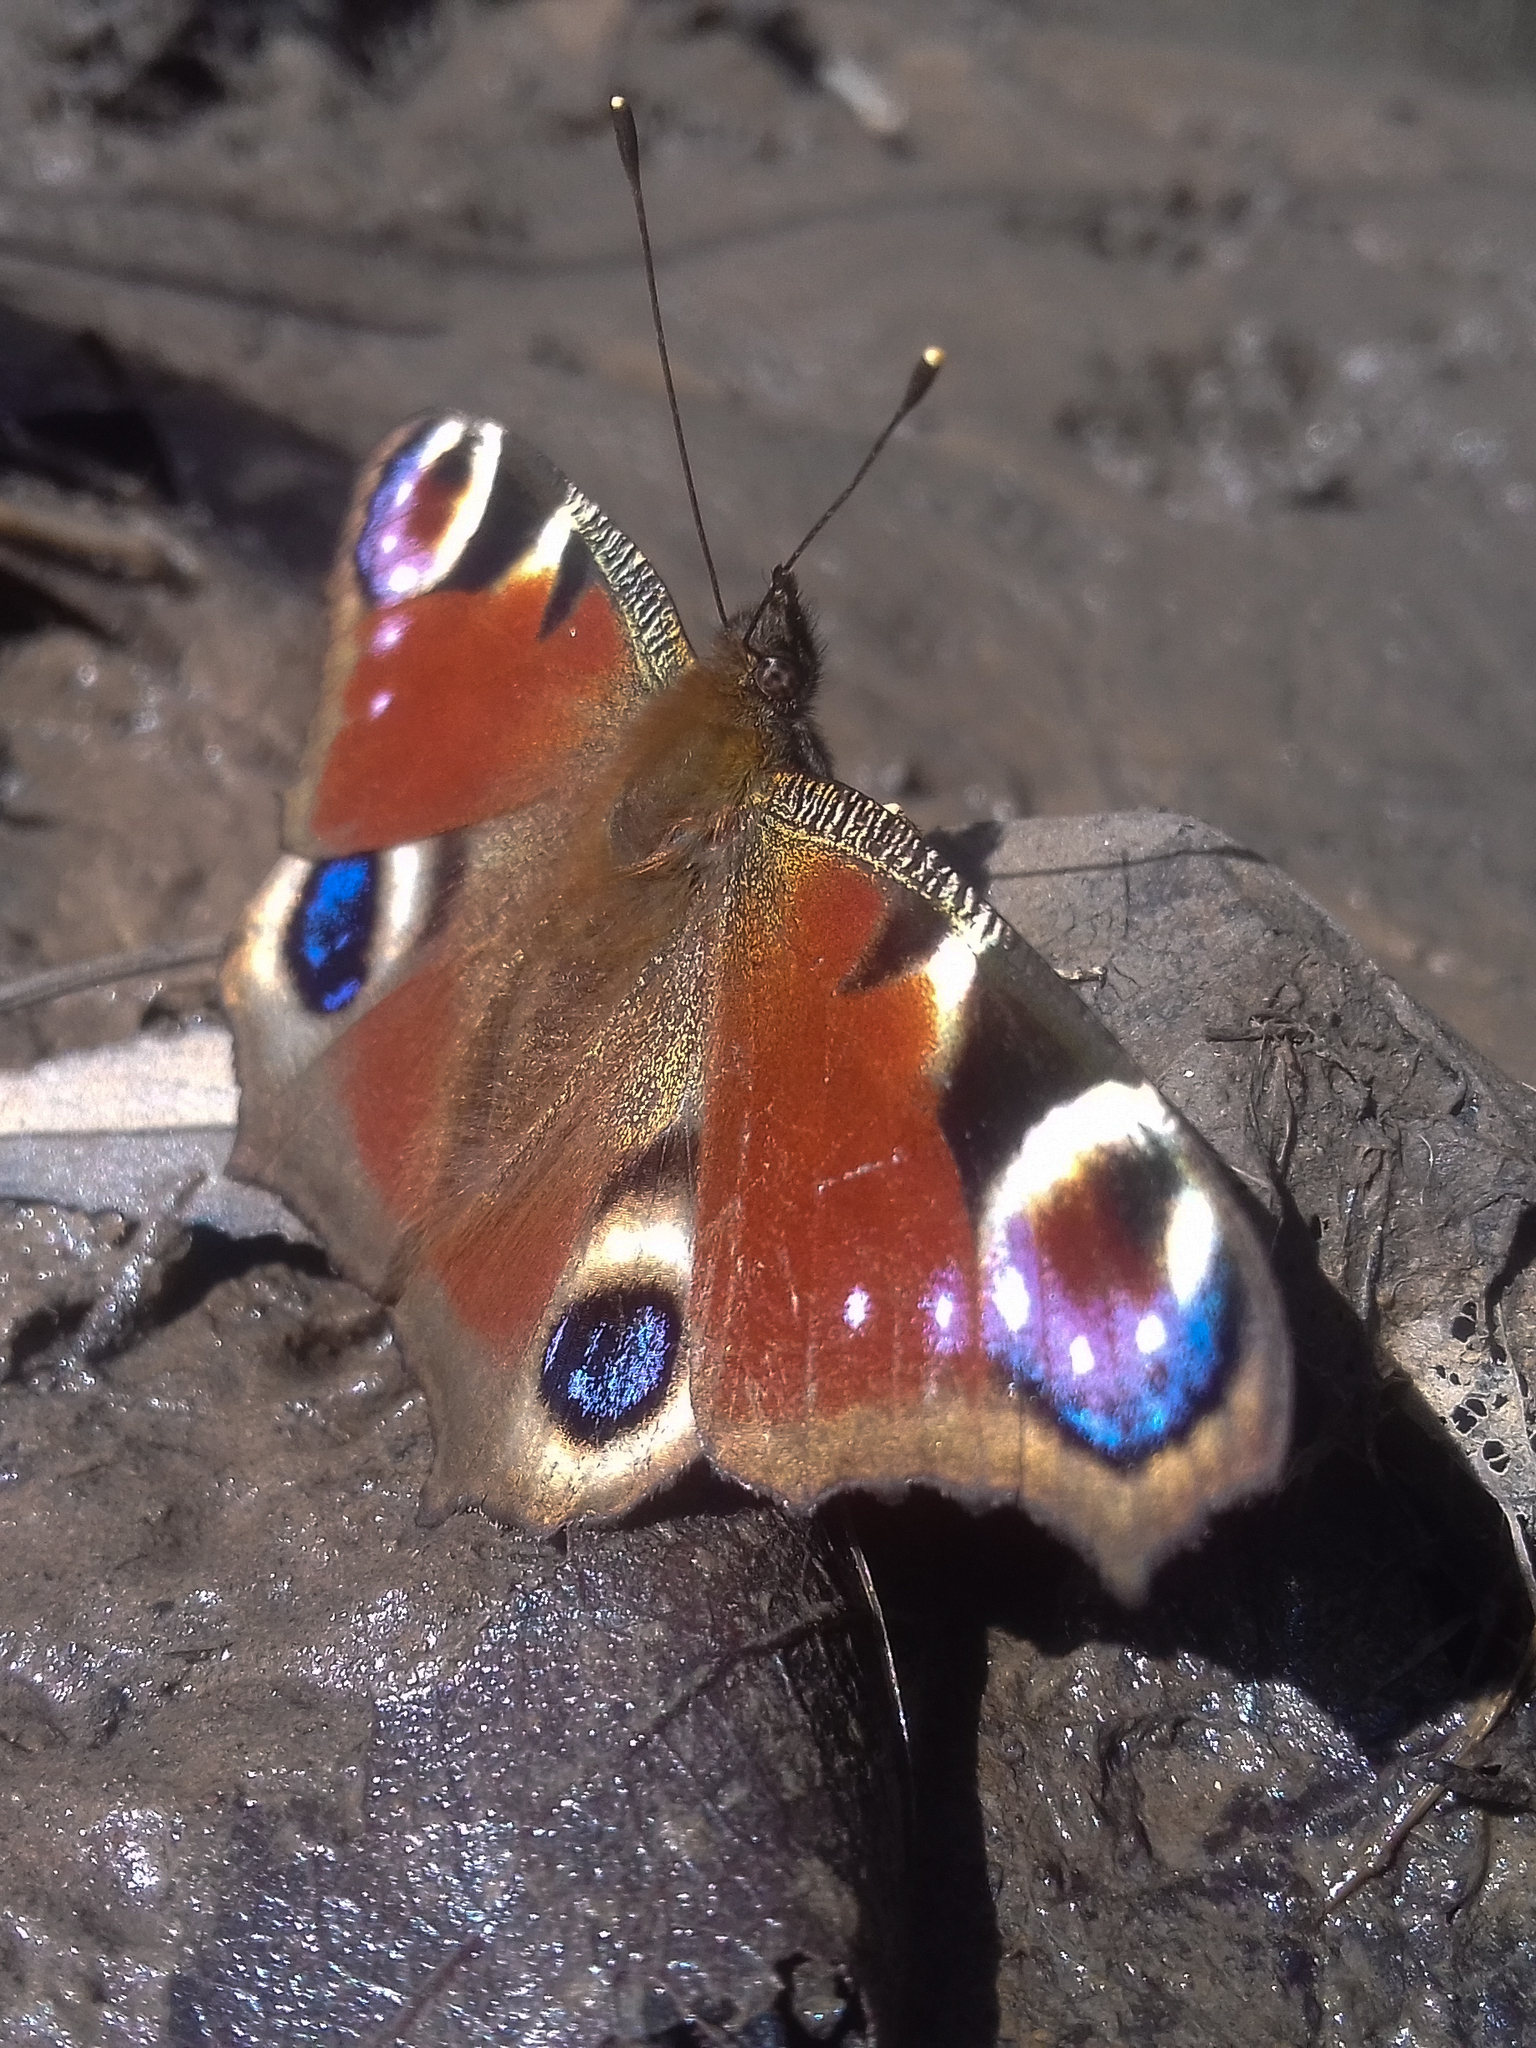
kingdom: Animalia
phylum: Arthropoda
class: Insecta
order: Lepidoptera
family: Nymphalidae
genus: Aglais
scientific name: Aglais io
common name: Peacock
